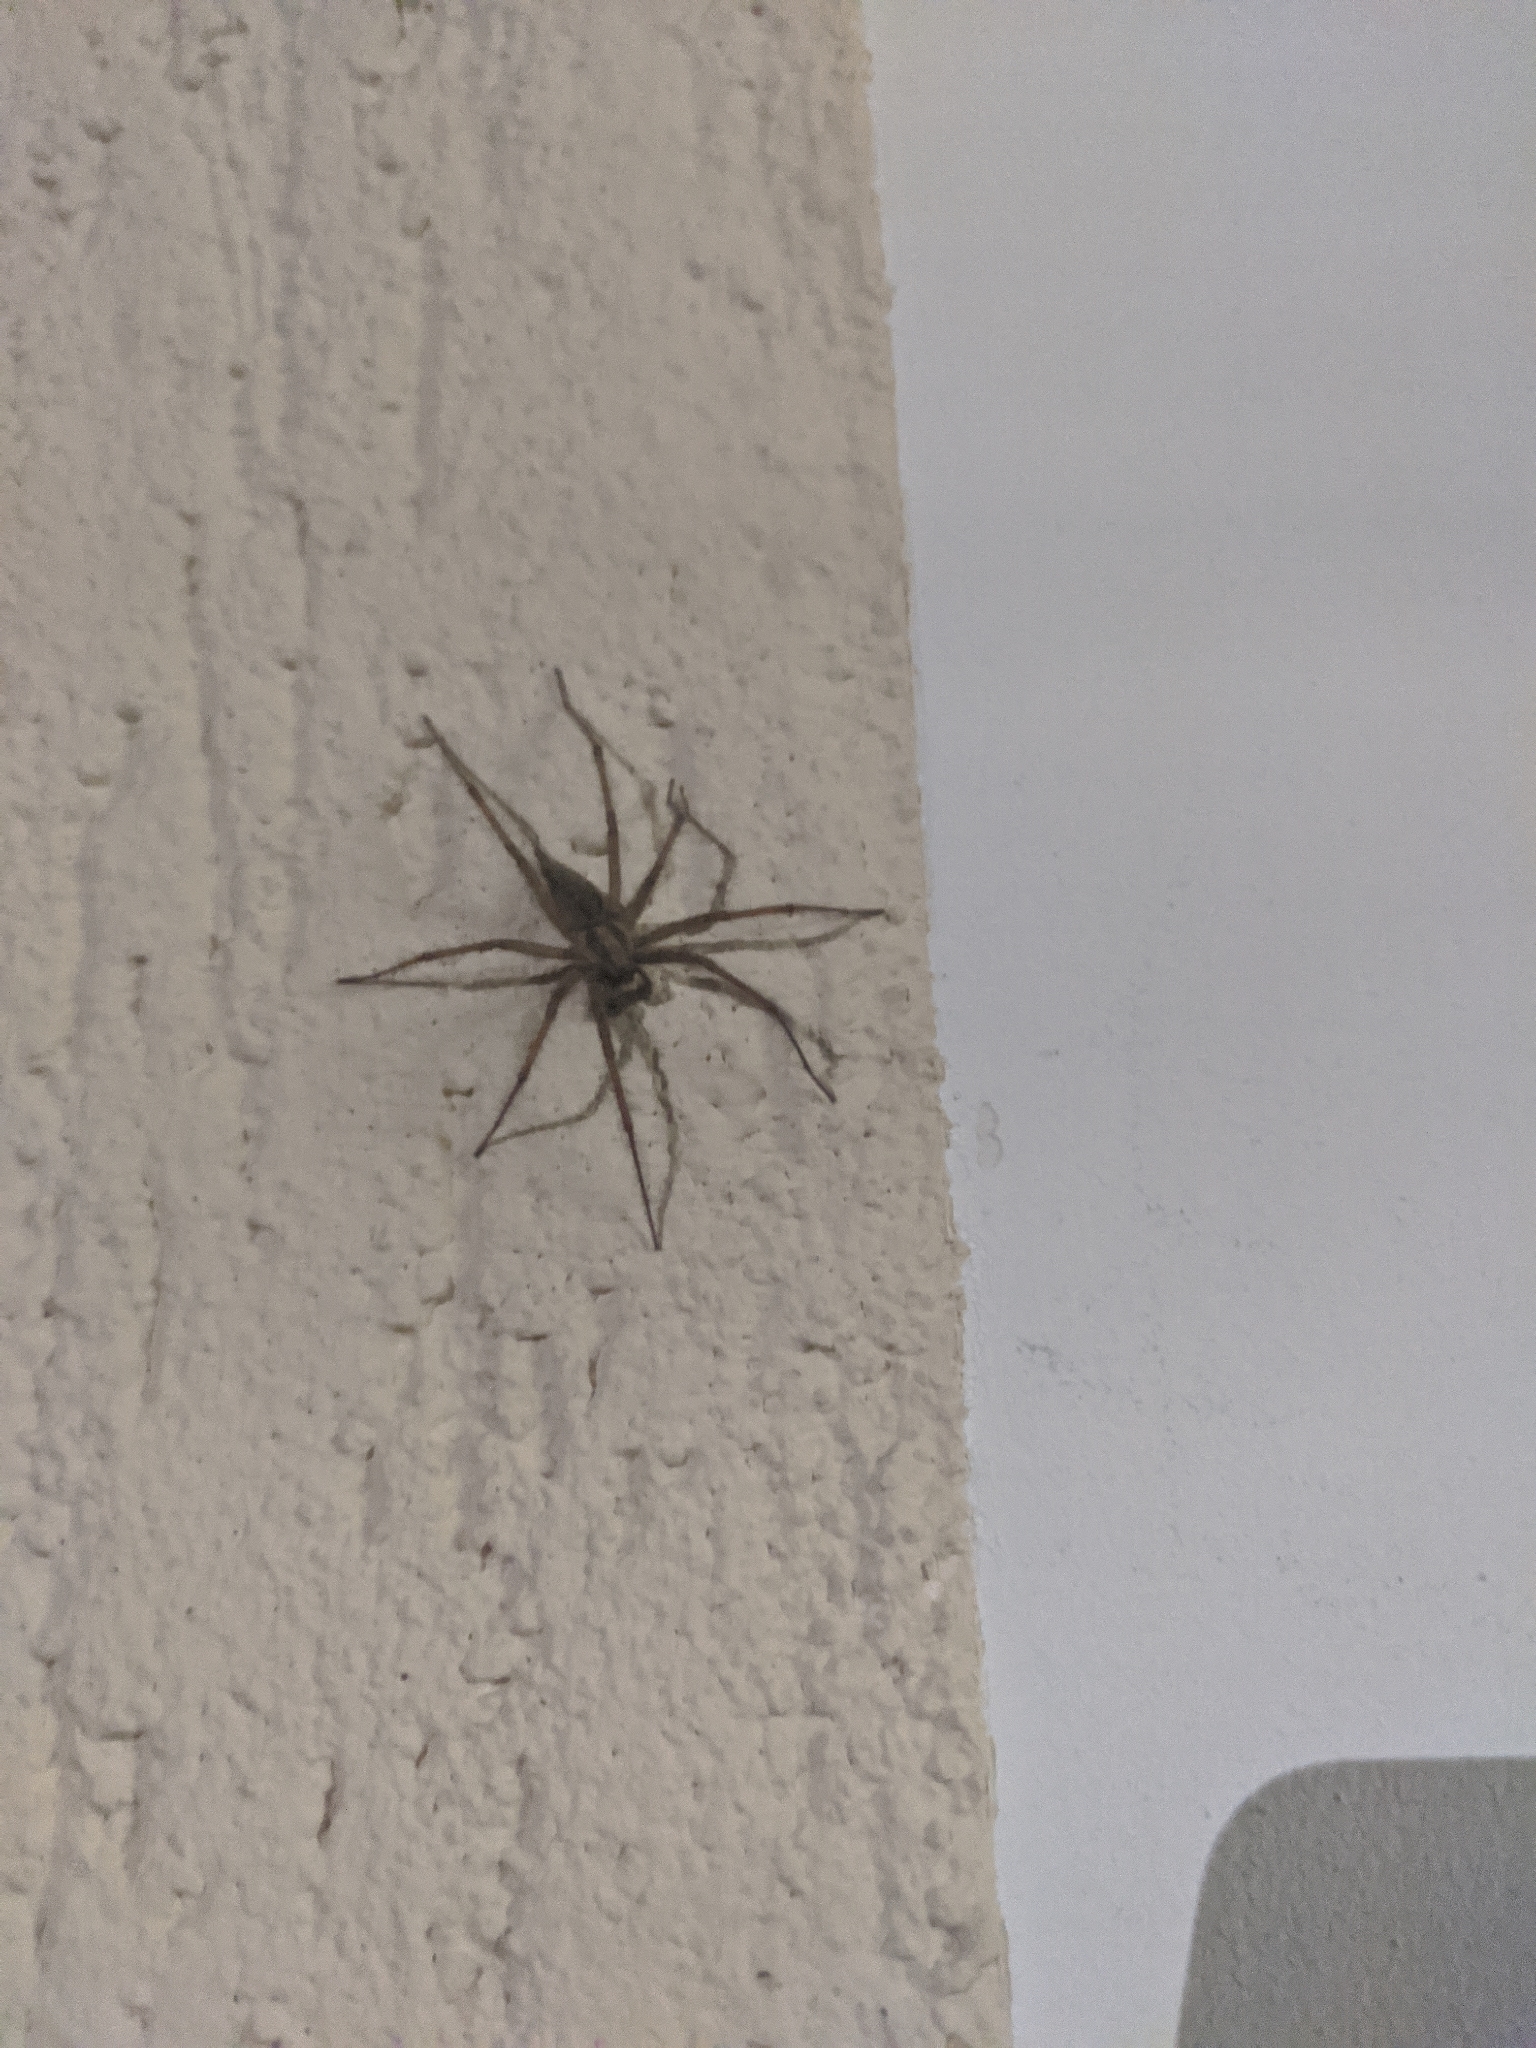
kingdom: Animalia
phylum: Arthropoda
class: Arachnida
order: Araneae
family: Agelenidae
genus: Agelena
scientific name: Agelena labyrinthica
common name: Labyrinth spider
